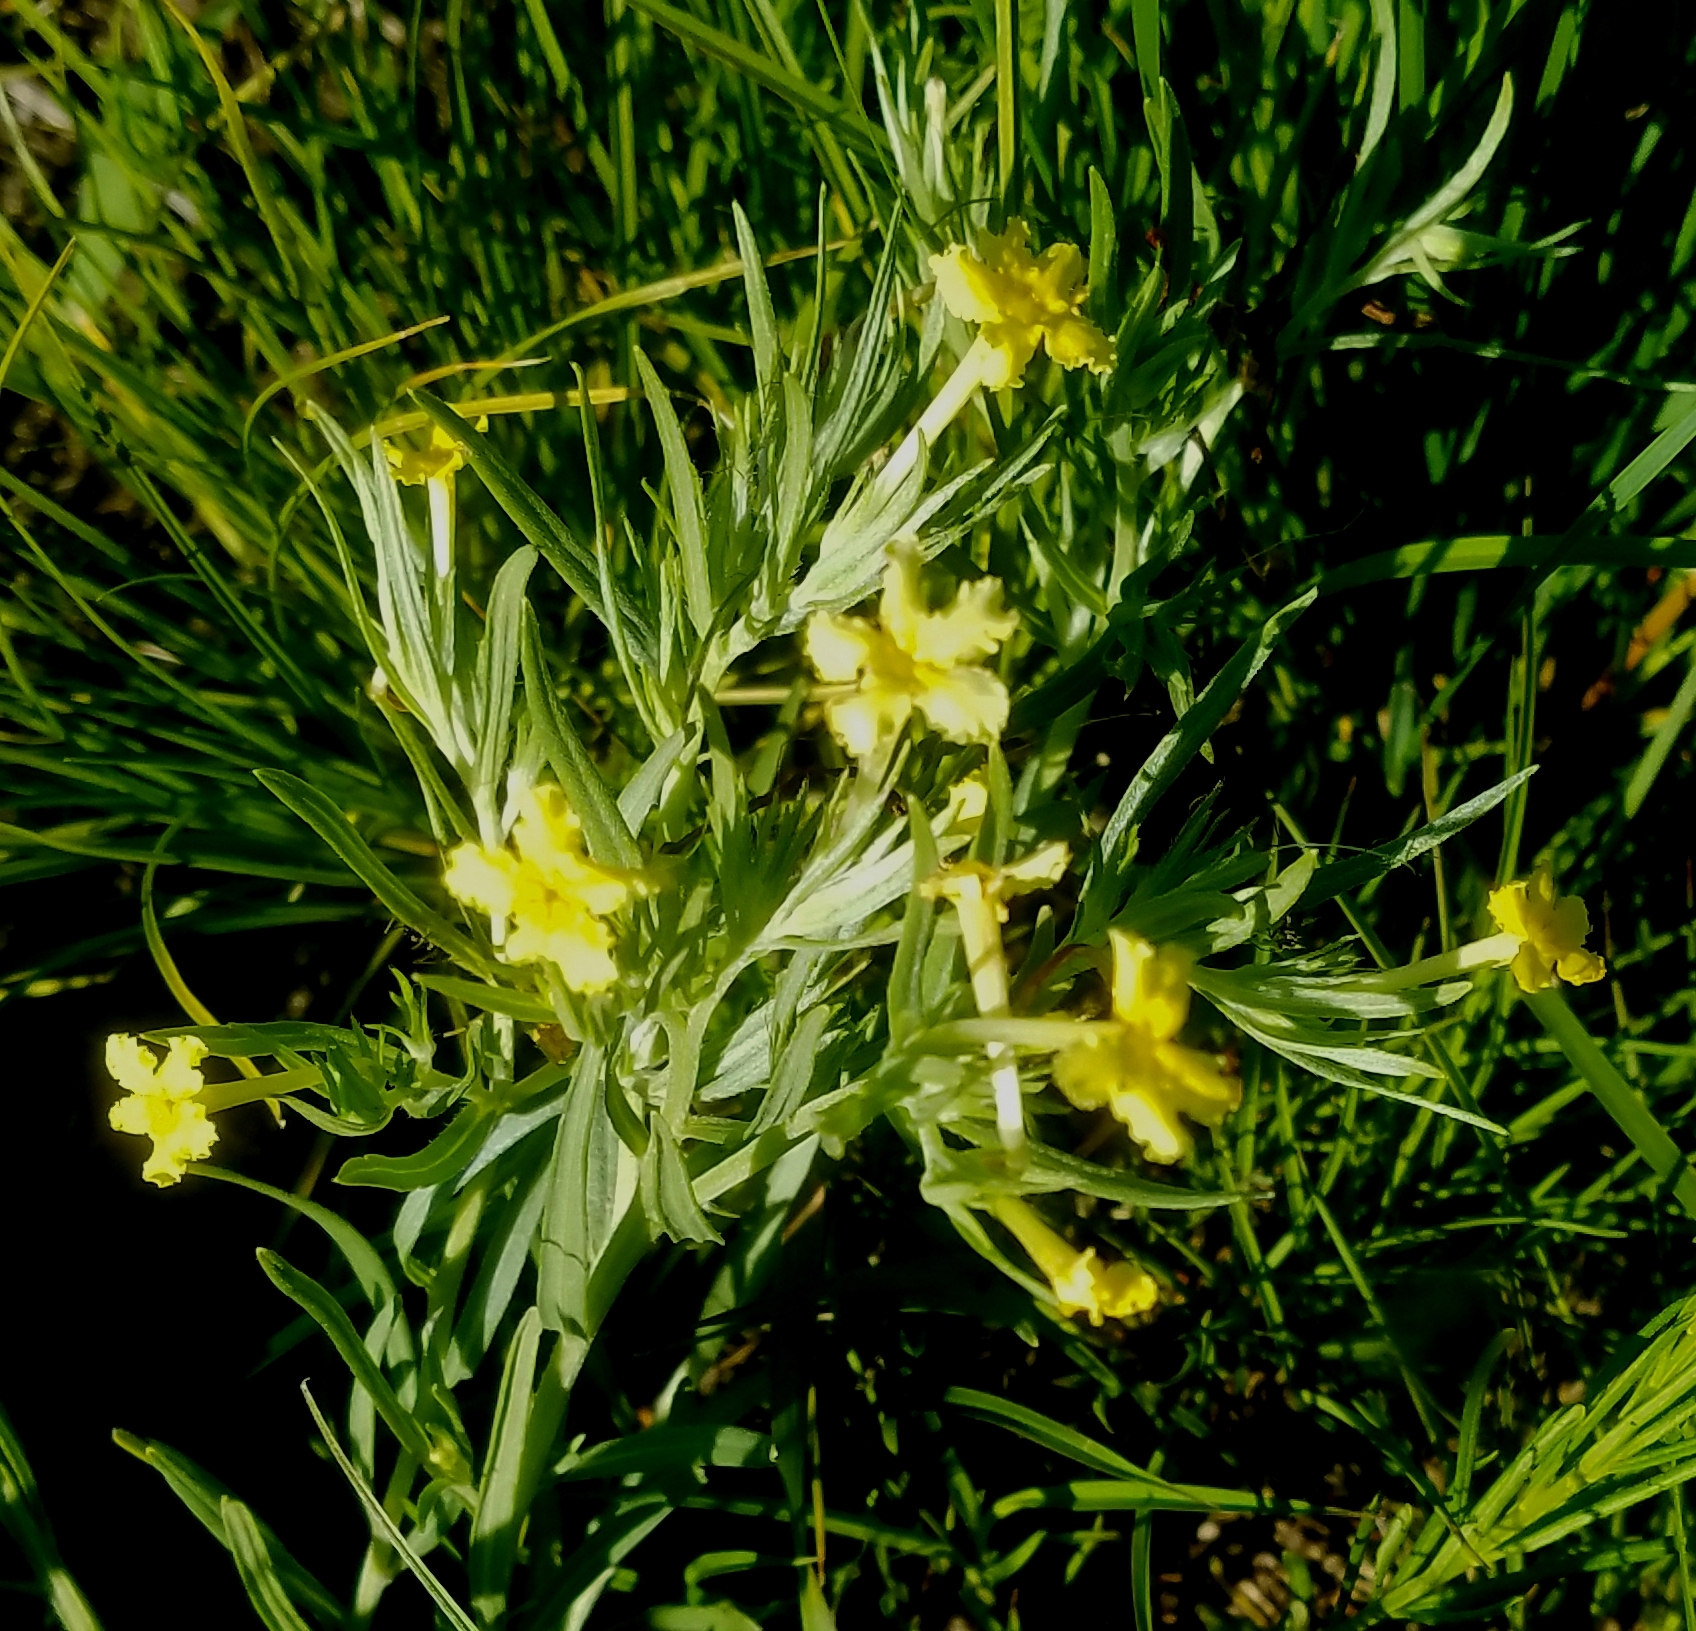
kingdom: Plantae
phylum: Tracheophyta
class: Magnoliopsida
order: Boraginales
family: Boraginaceae
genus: Lithospermum
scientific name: Lithospermum incisum
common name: Fringed gromwell
